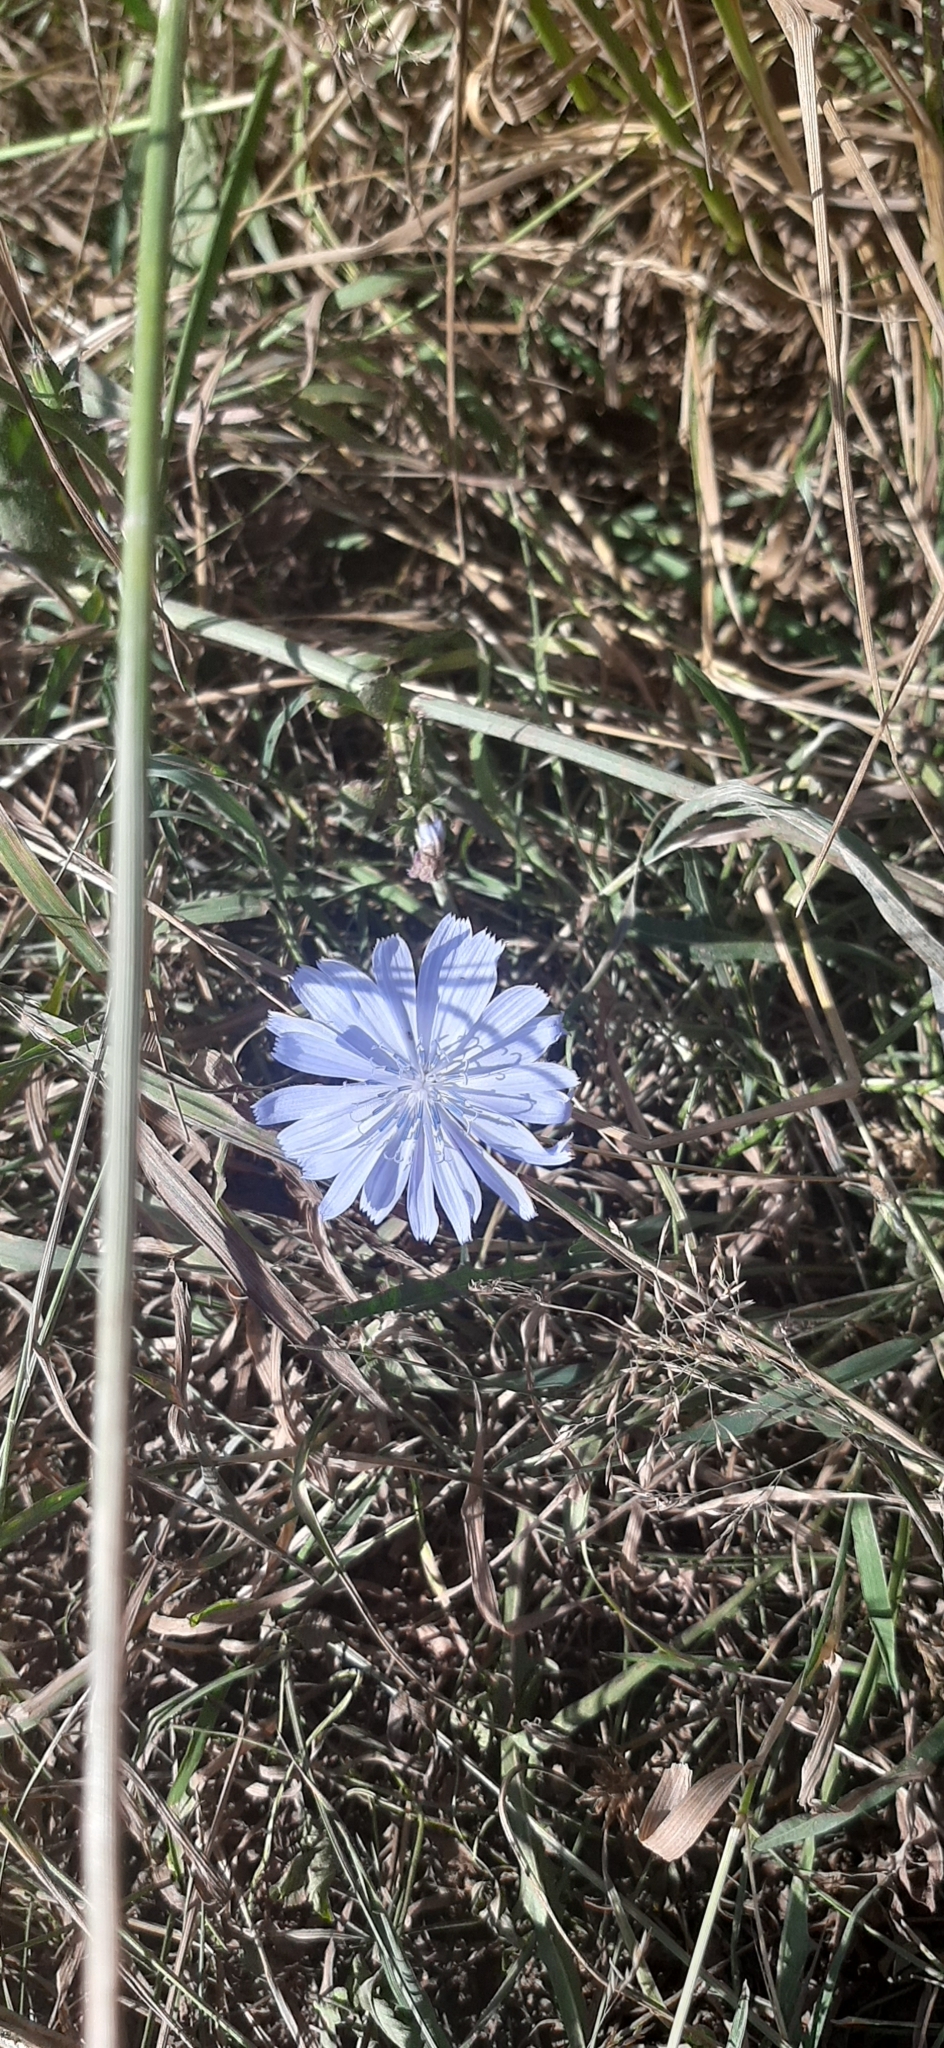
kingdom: Plantae
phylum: Tracheophyta
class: Magnoliopsida
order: Asterales
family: Asteraceae
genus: Cichorium
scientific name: Cichorium intybus
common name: Chicory
